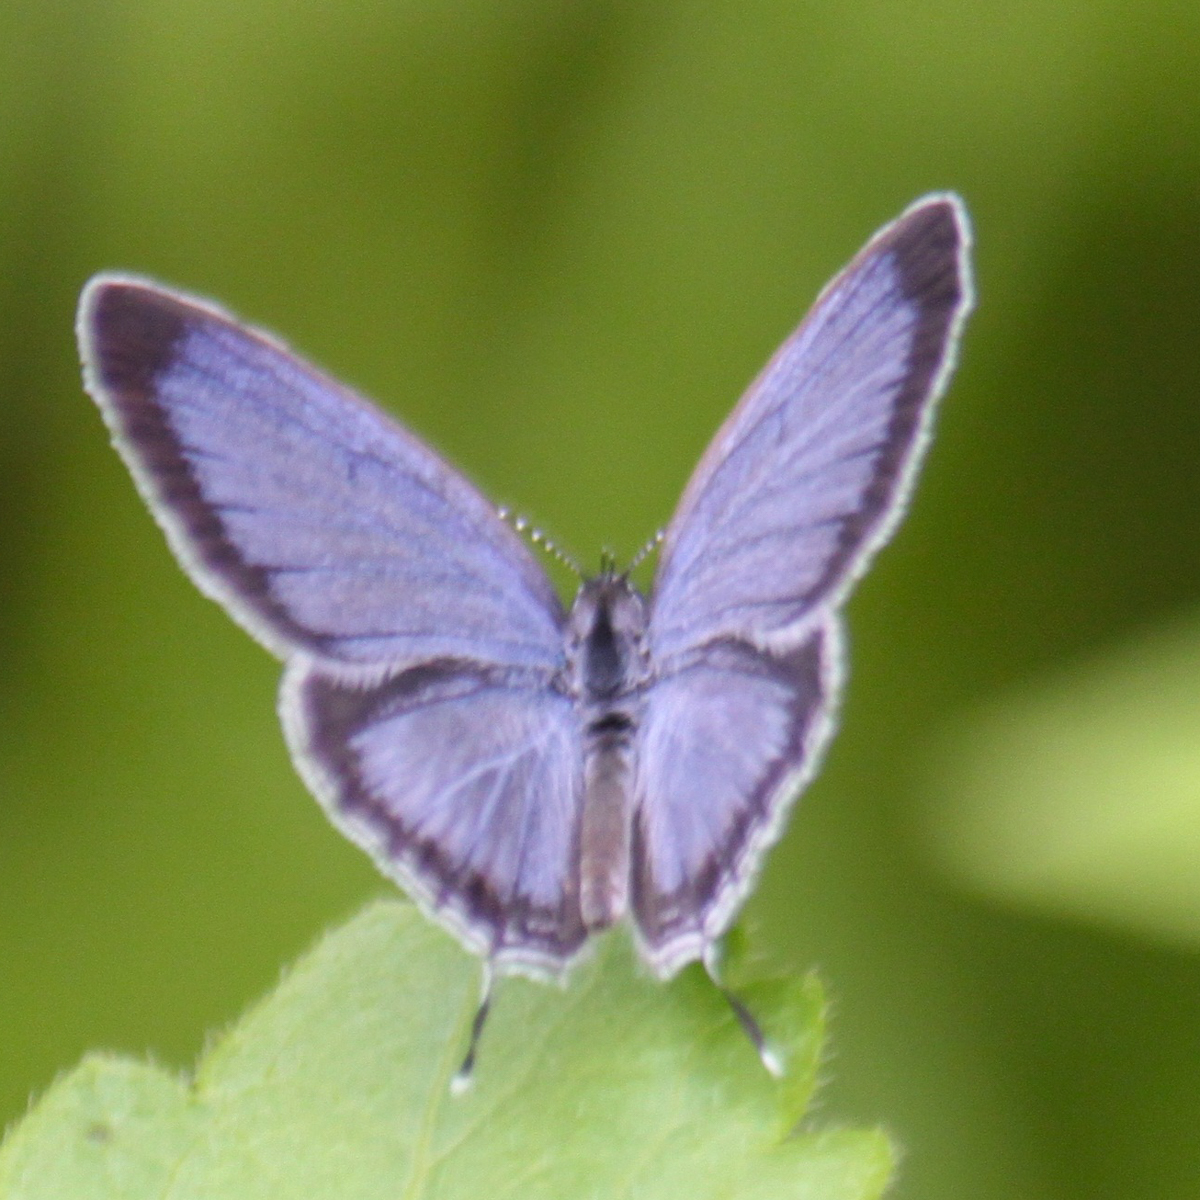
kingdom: Animalia
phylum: Arthropoda
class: Insecta
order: Lepidoptera
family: Lycaenidae
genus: Everes
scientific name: Everes lacturnus
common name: Orange-tipped pea-blue
